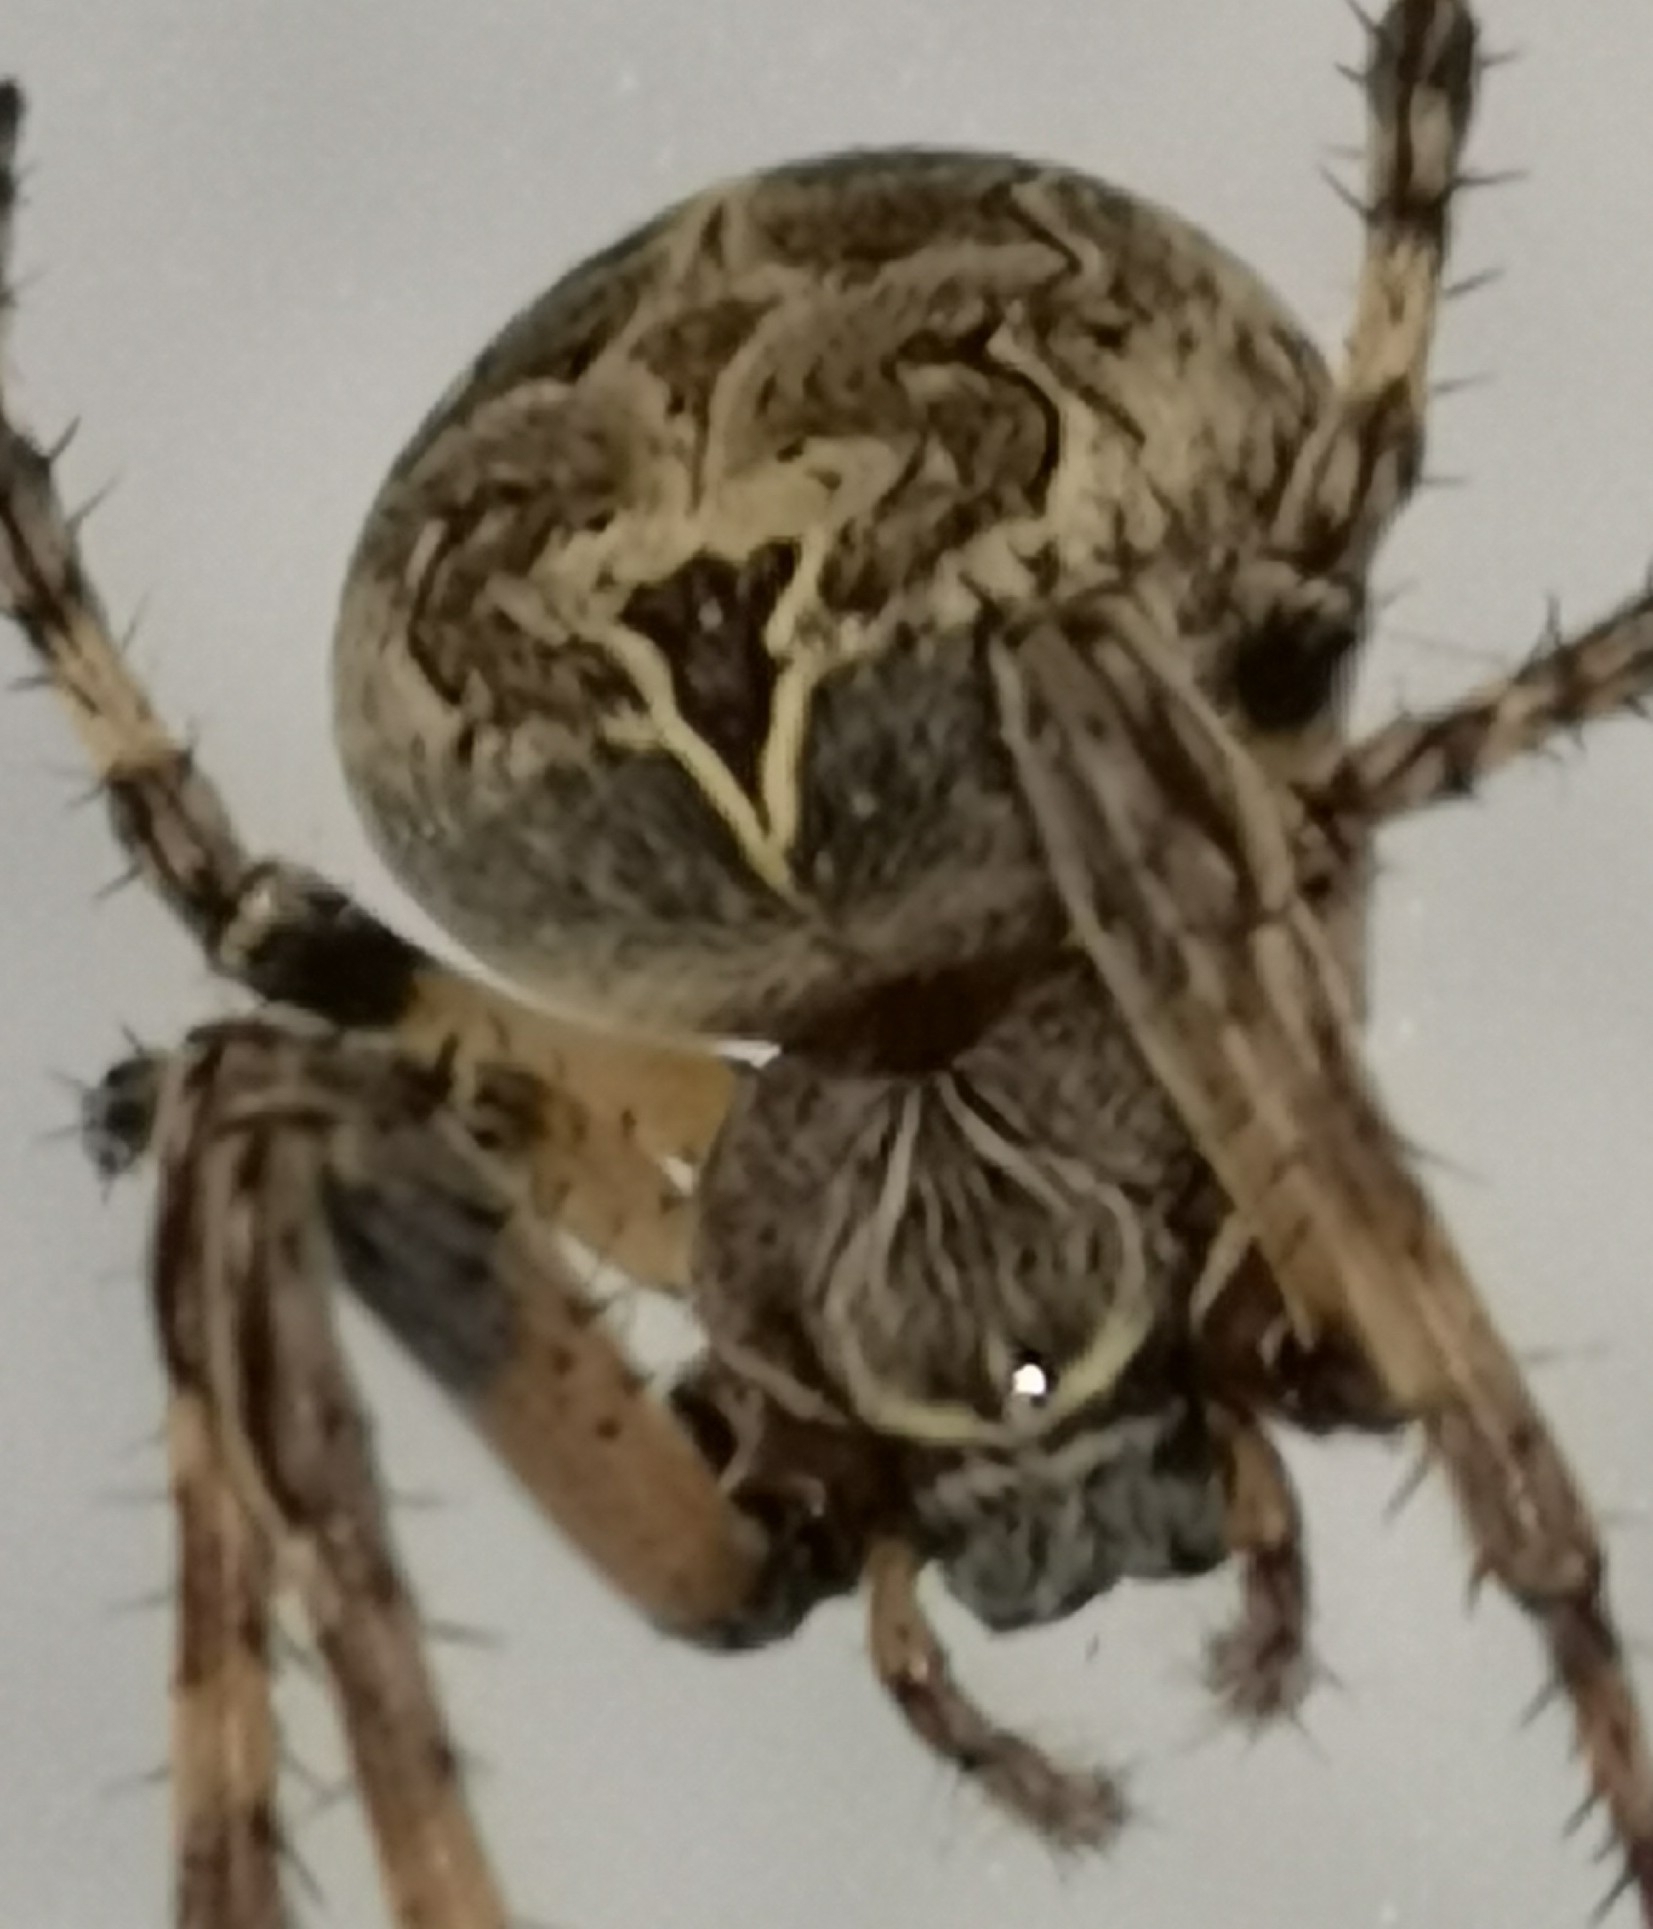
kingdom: Animalia
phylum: Arthropoda
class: Arachnida
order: Araneae
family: Araneidae
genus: Larinioides
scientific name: Larinioides sclopetarius
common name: Bridge orbweaver
